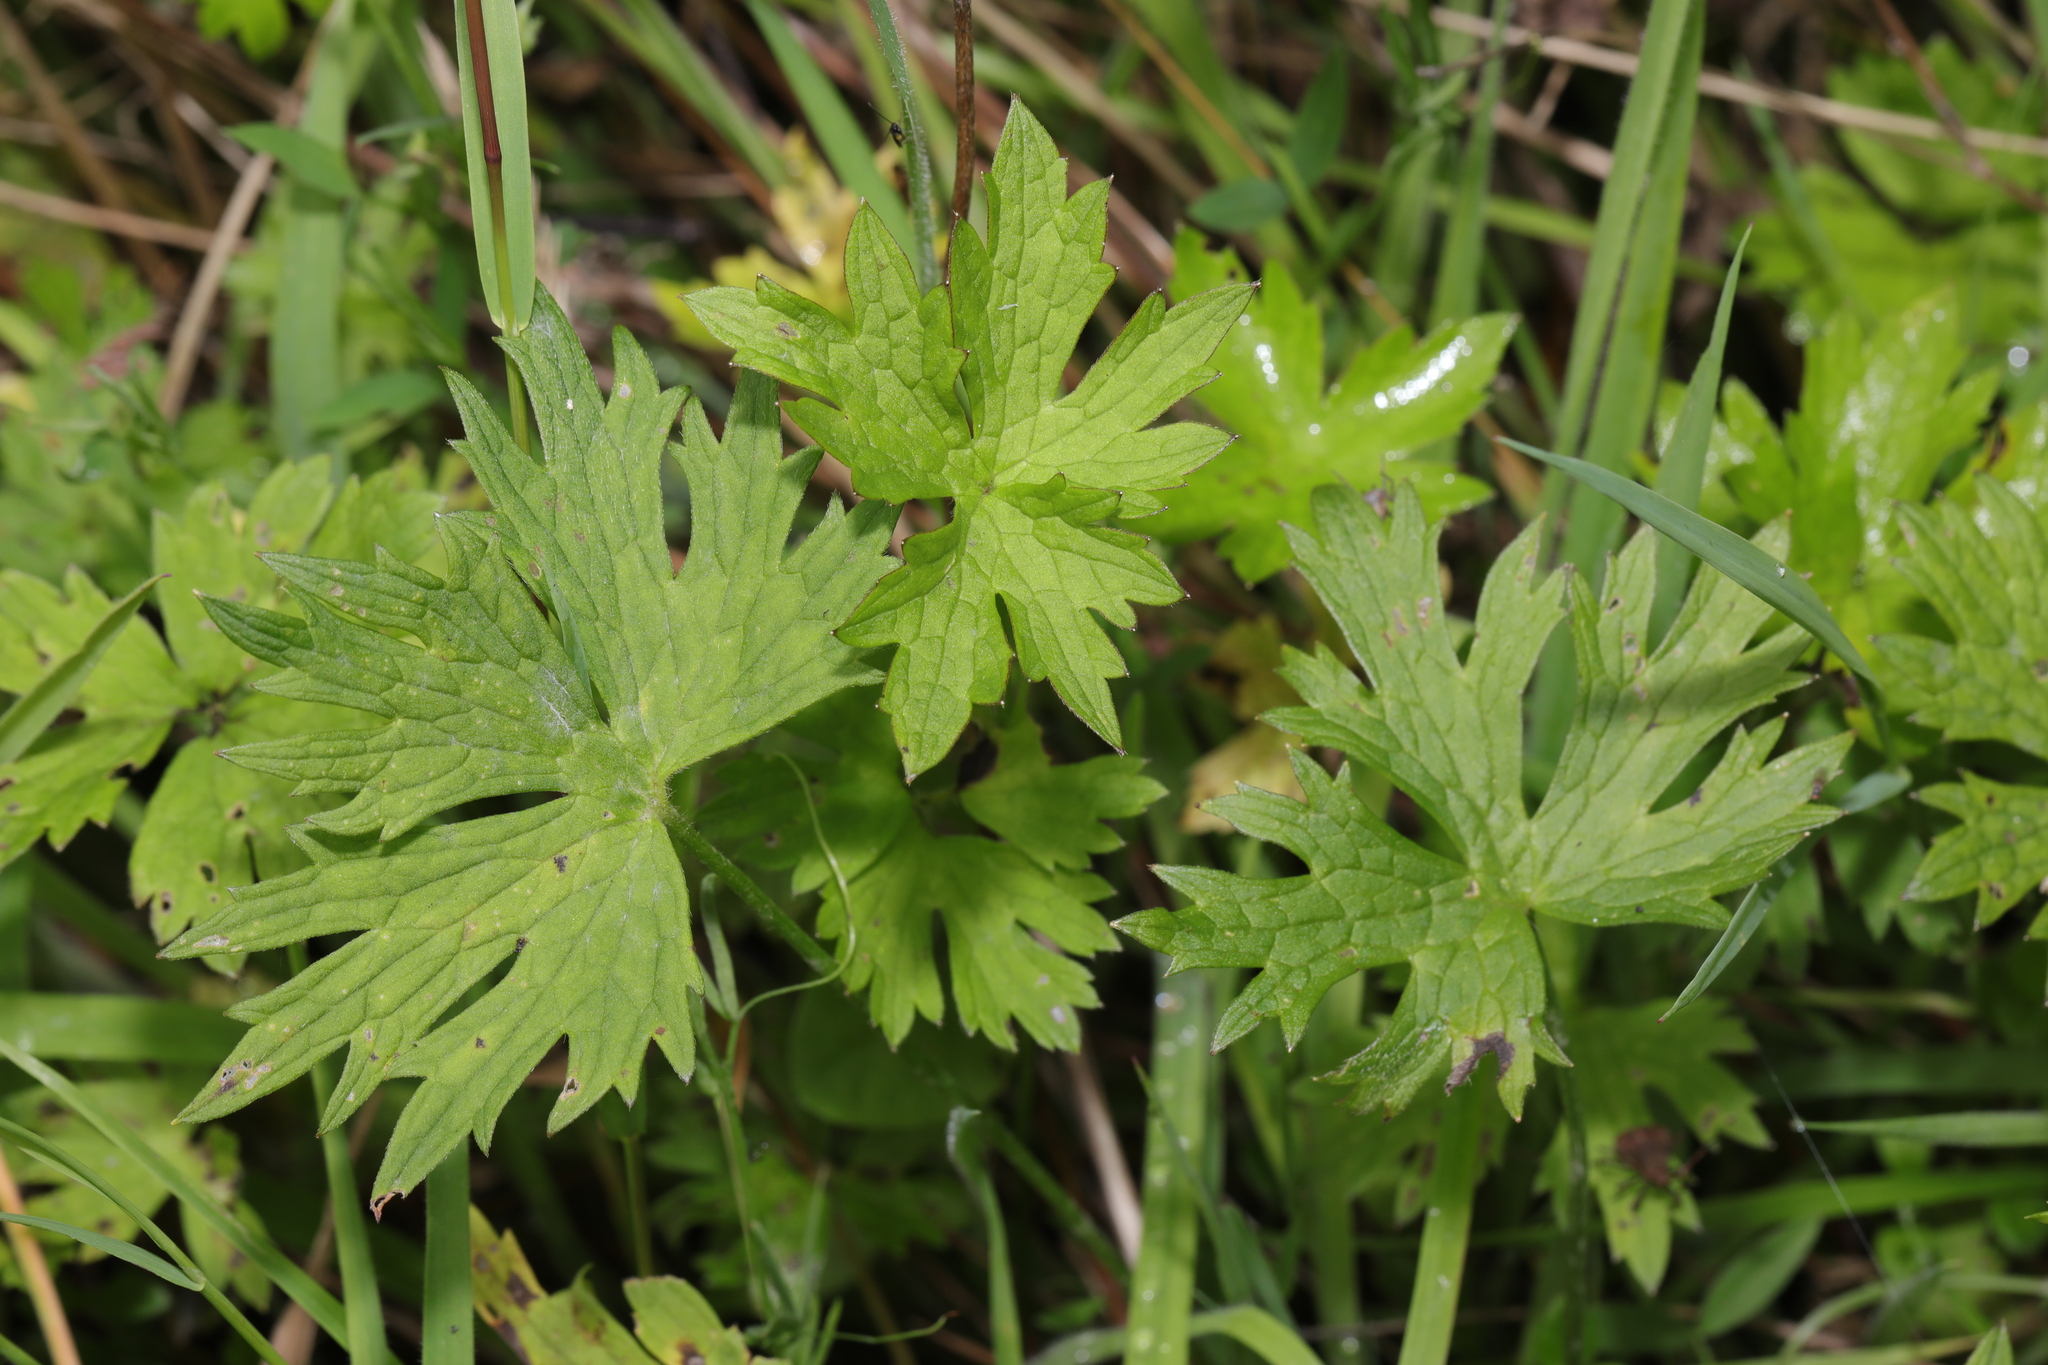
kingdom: Plantae
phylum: Tracheophyta
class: Magnoliopsida
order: Ranunculales
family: Ranunculaceae
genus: Ranunculus
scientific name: Ranunculus acris
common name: Meadow buttercup
